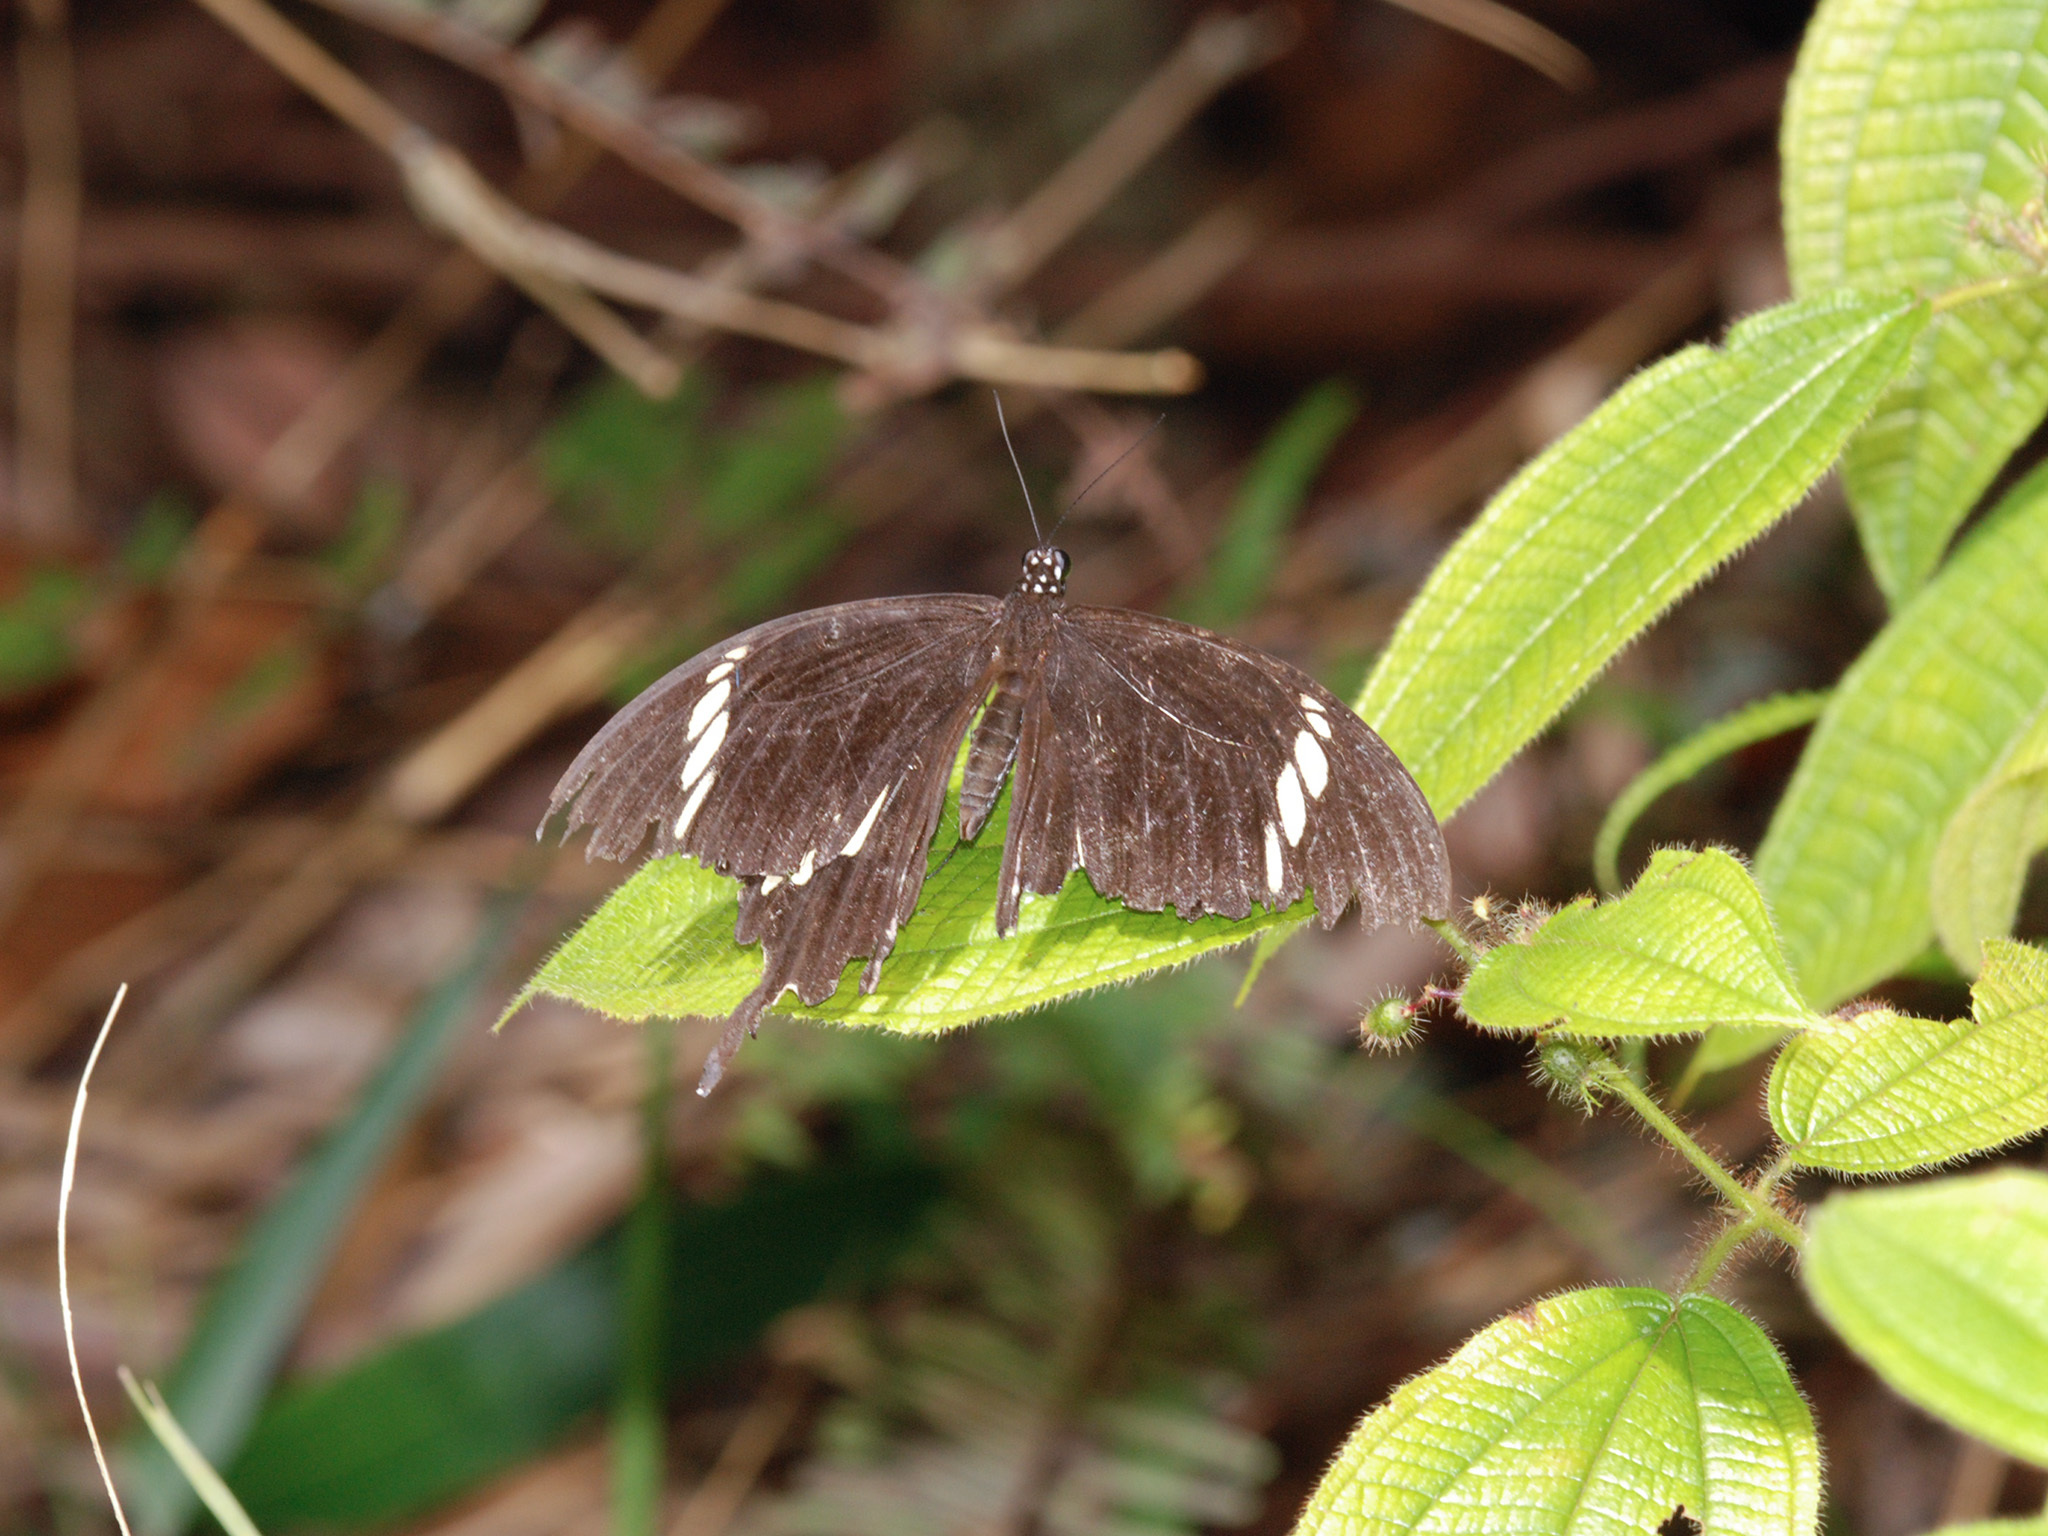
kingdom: Animalia
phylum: Arthropoda
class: Insecta
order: Lepidoptera
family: Papilionidae
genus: Papilio
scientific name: Papilio nephelus
